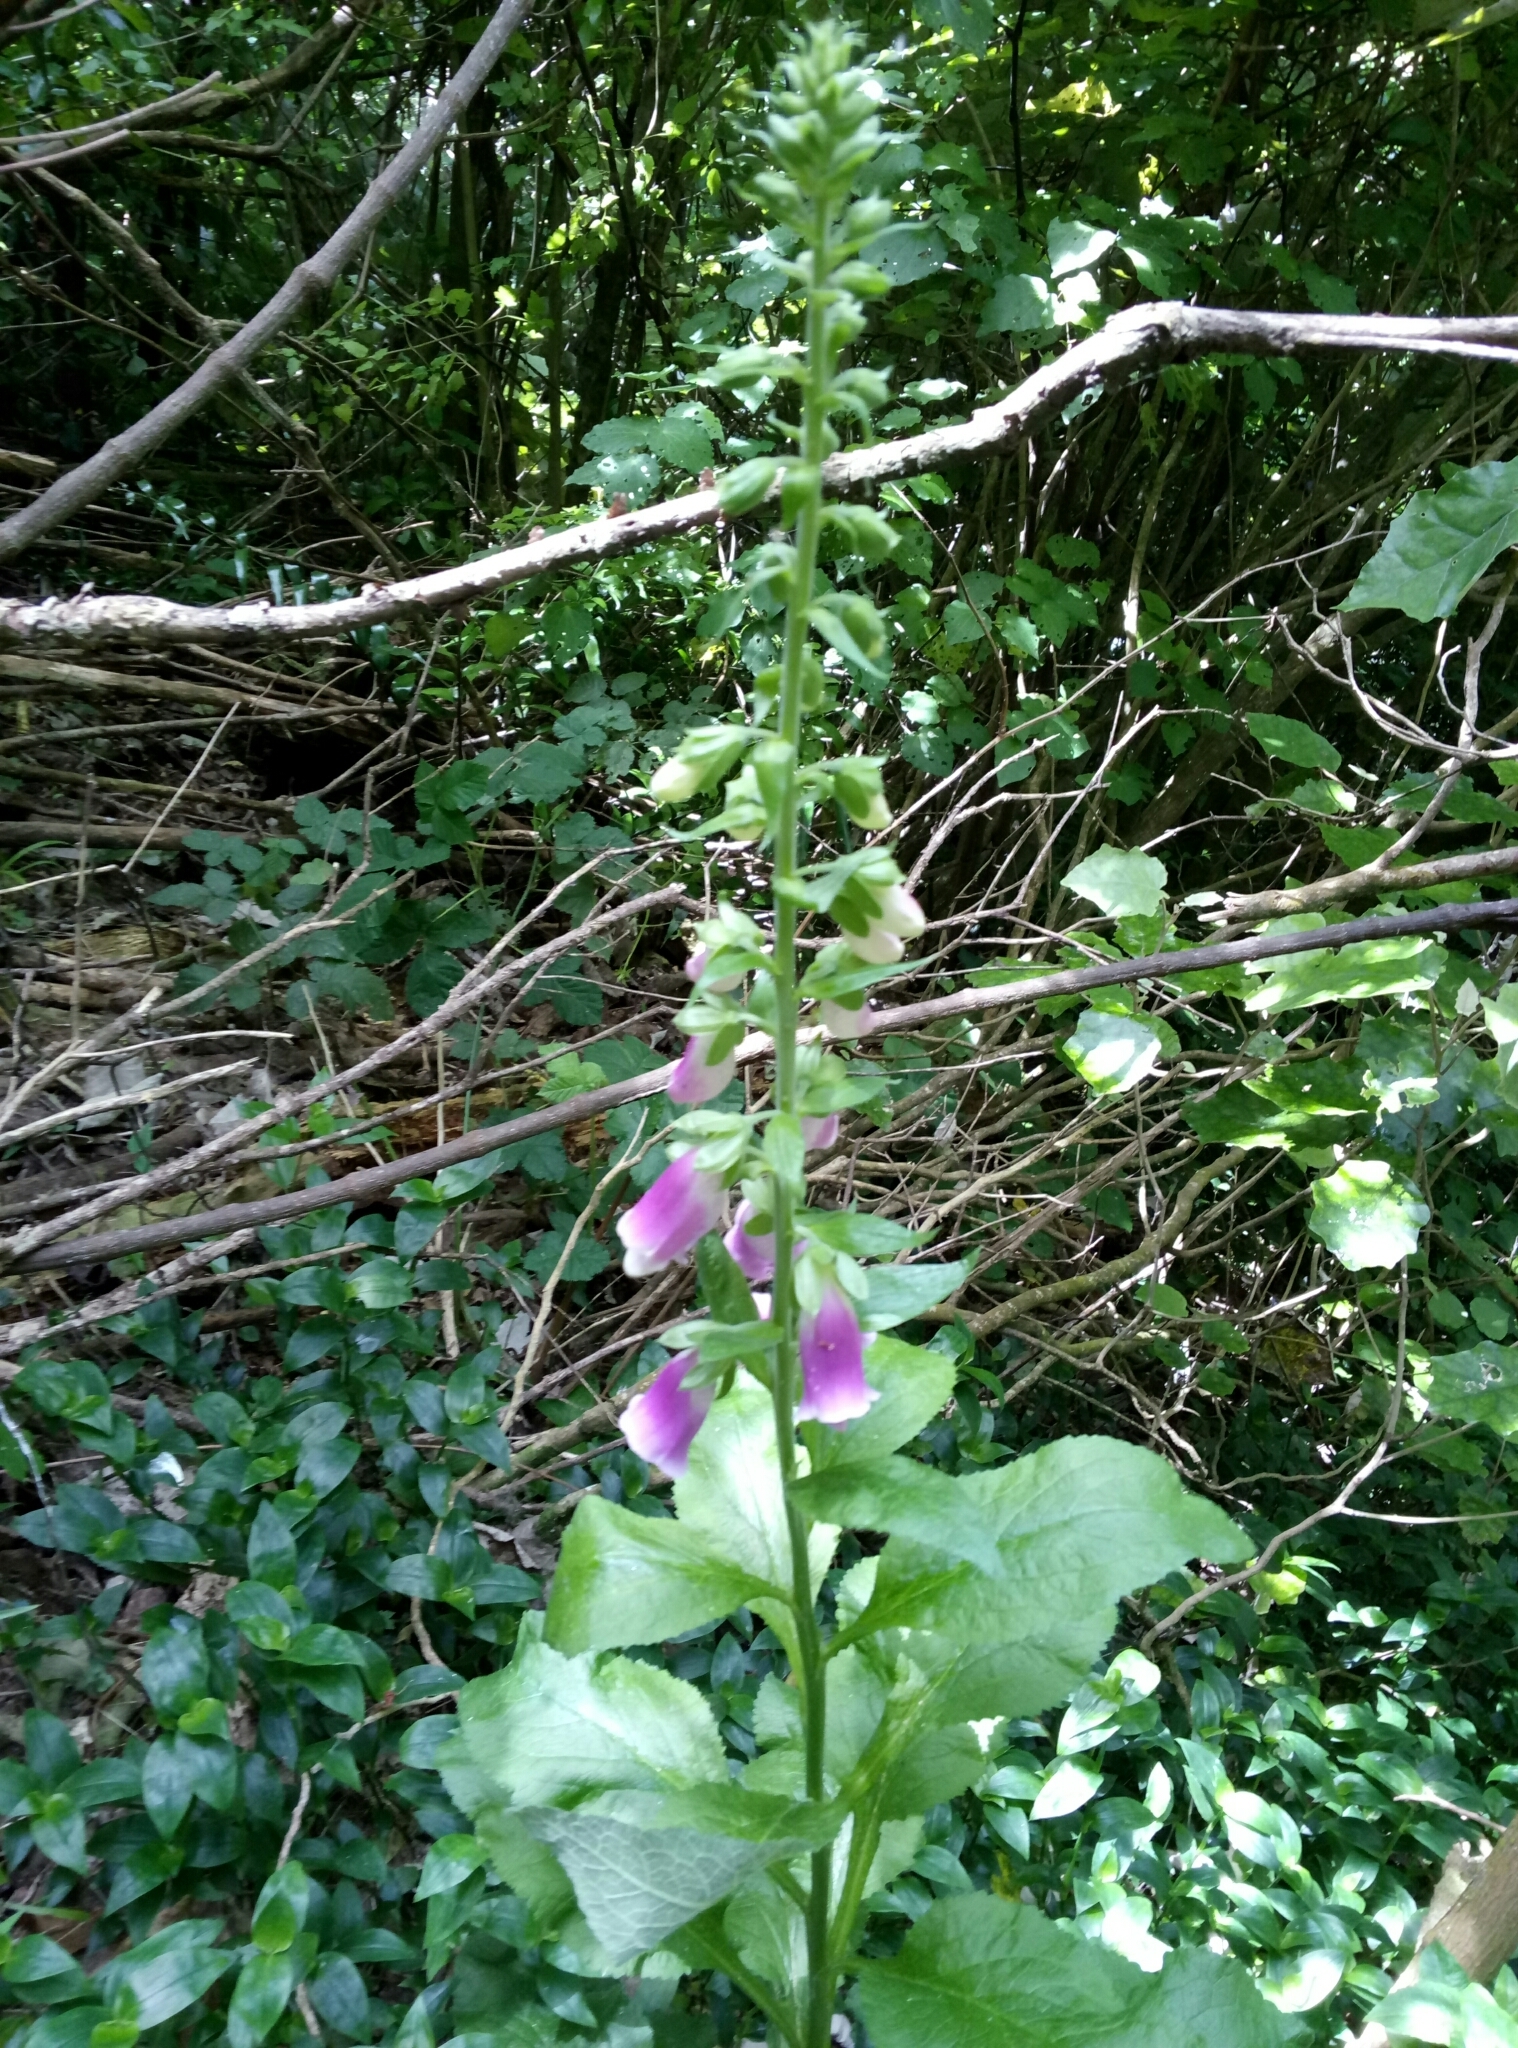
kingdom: Plantae
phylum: Tracheophyta
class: Magnoliopsida
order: Lamiales
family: Plantaginaceae
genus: Digitalis
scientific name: Digitalis purpurea
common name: Foxglove
